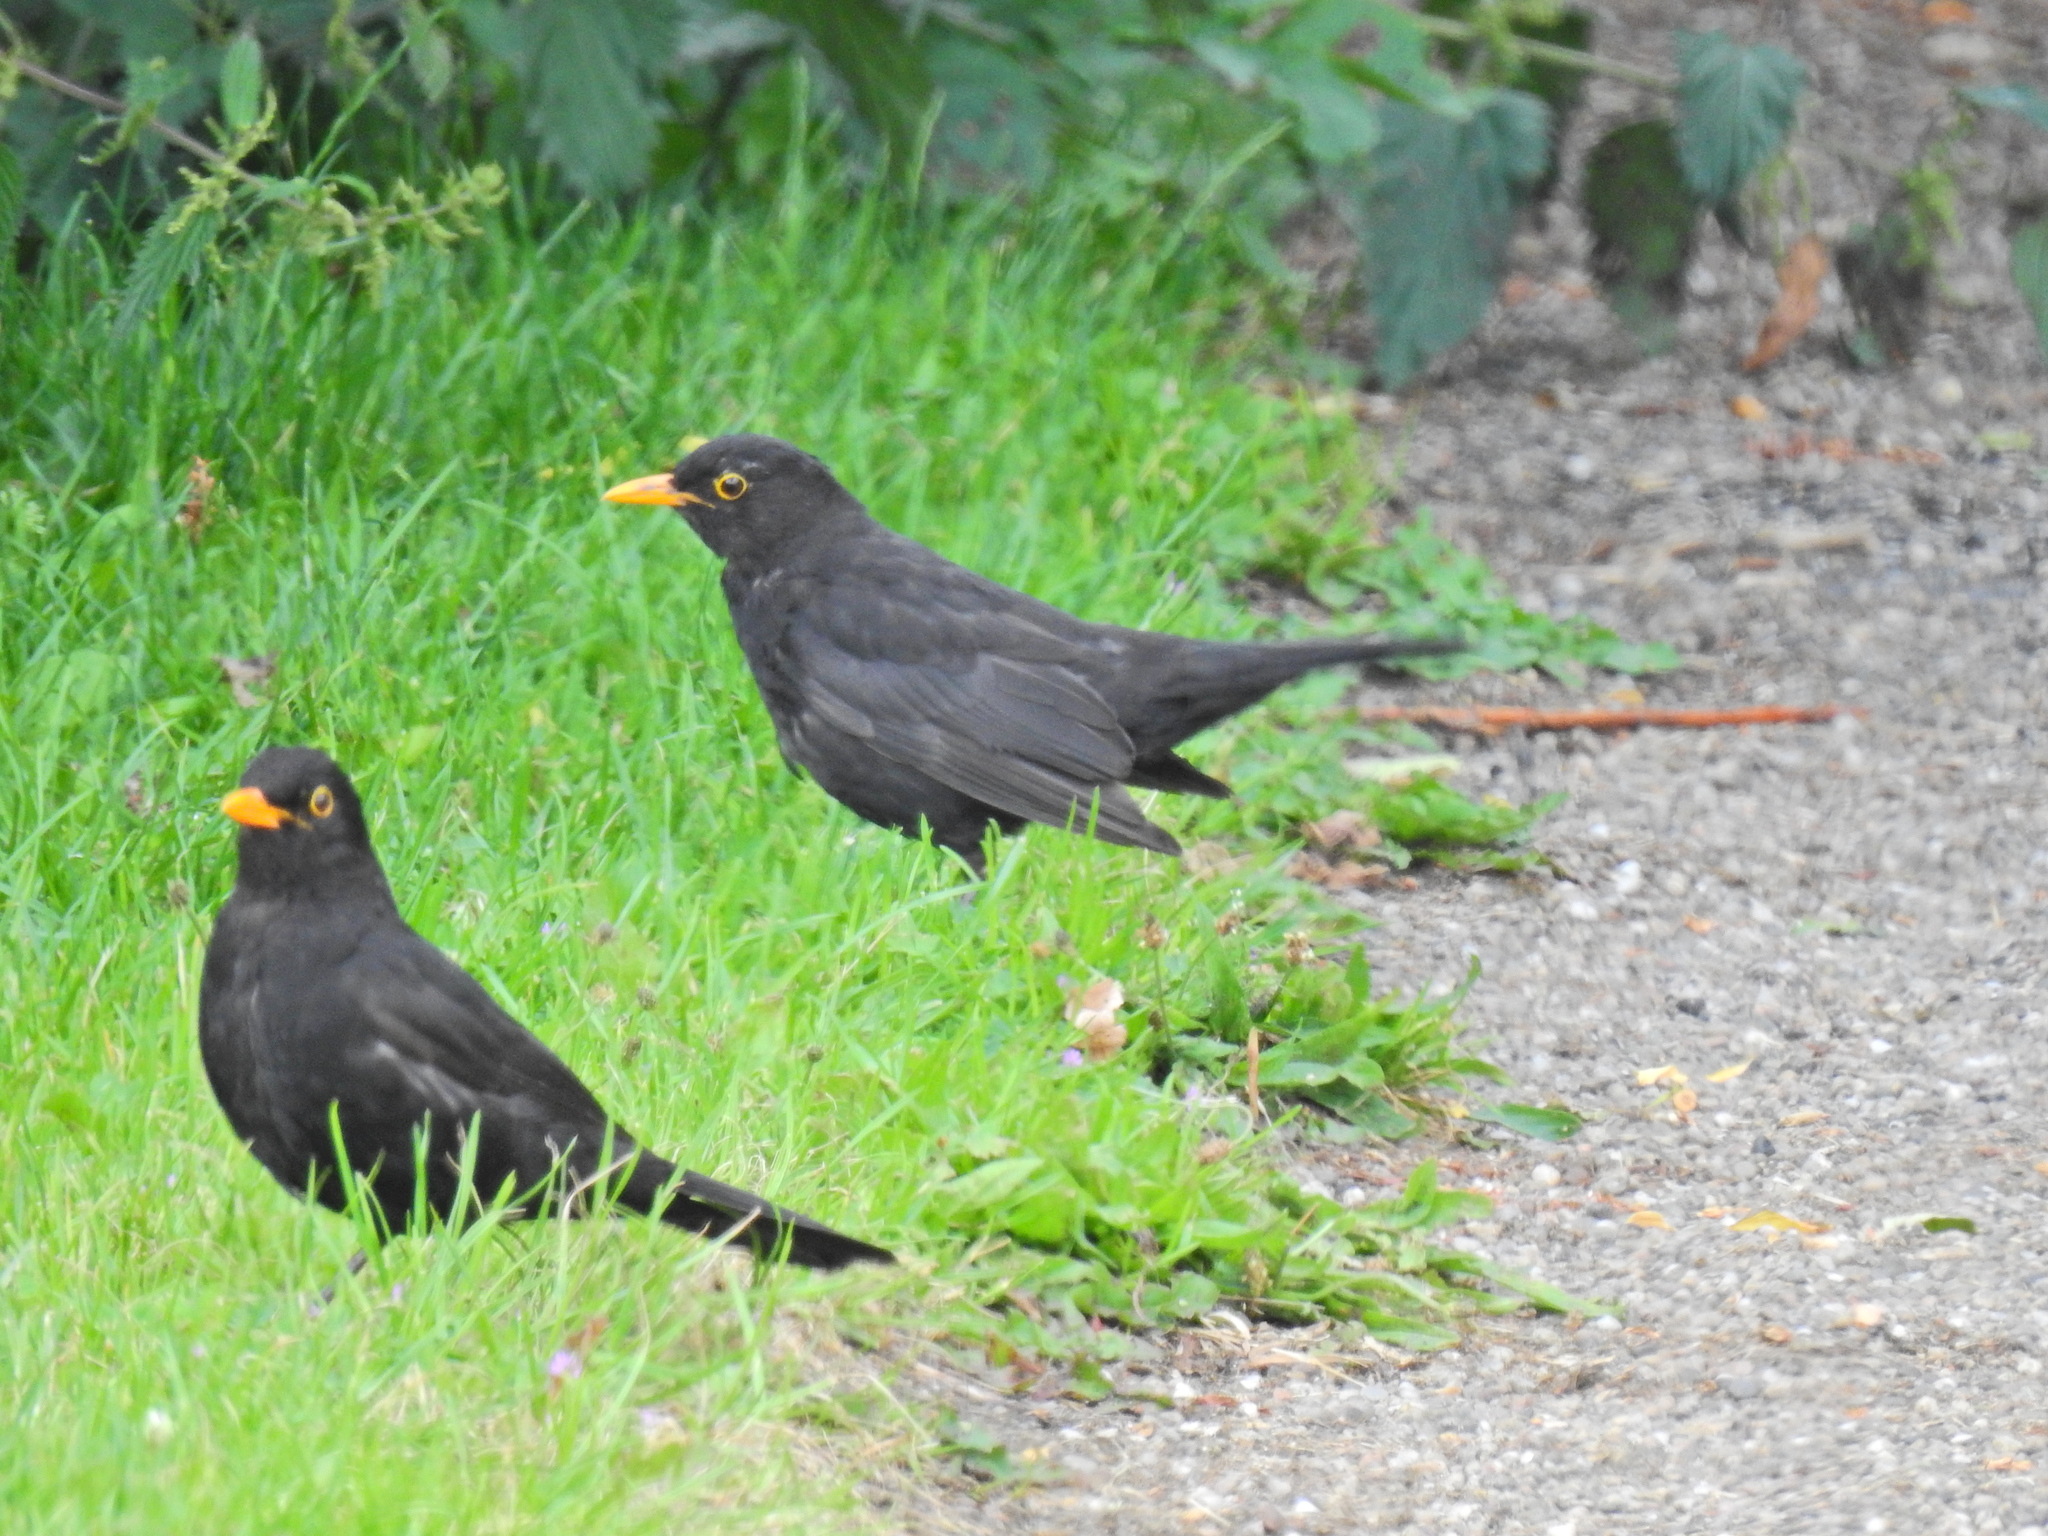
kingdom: Animalia
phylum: Chordata
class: Aves
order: Passeriformes
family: Turdidae
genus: Turdus
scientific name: Turdus merula
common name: Common blackbird
